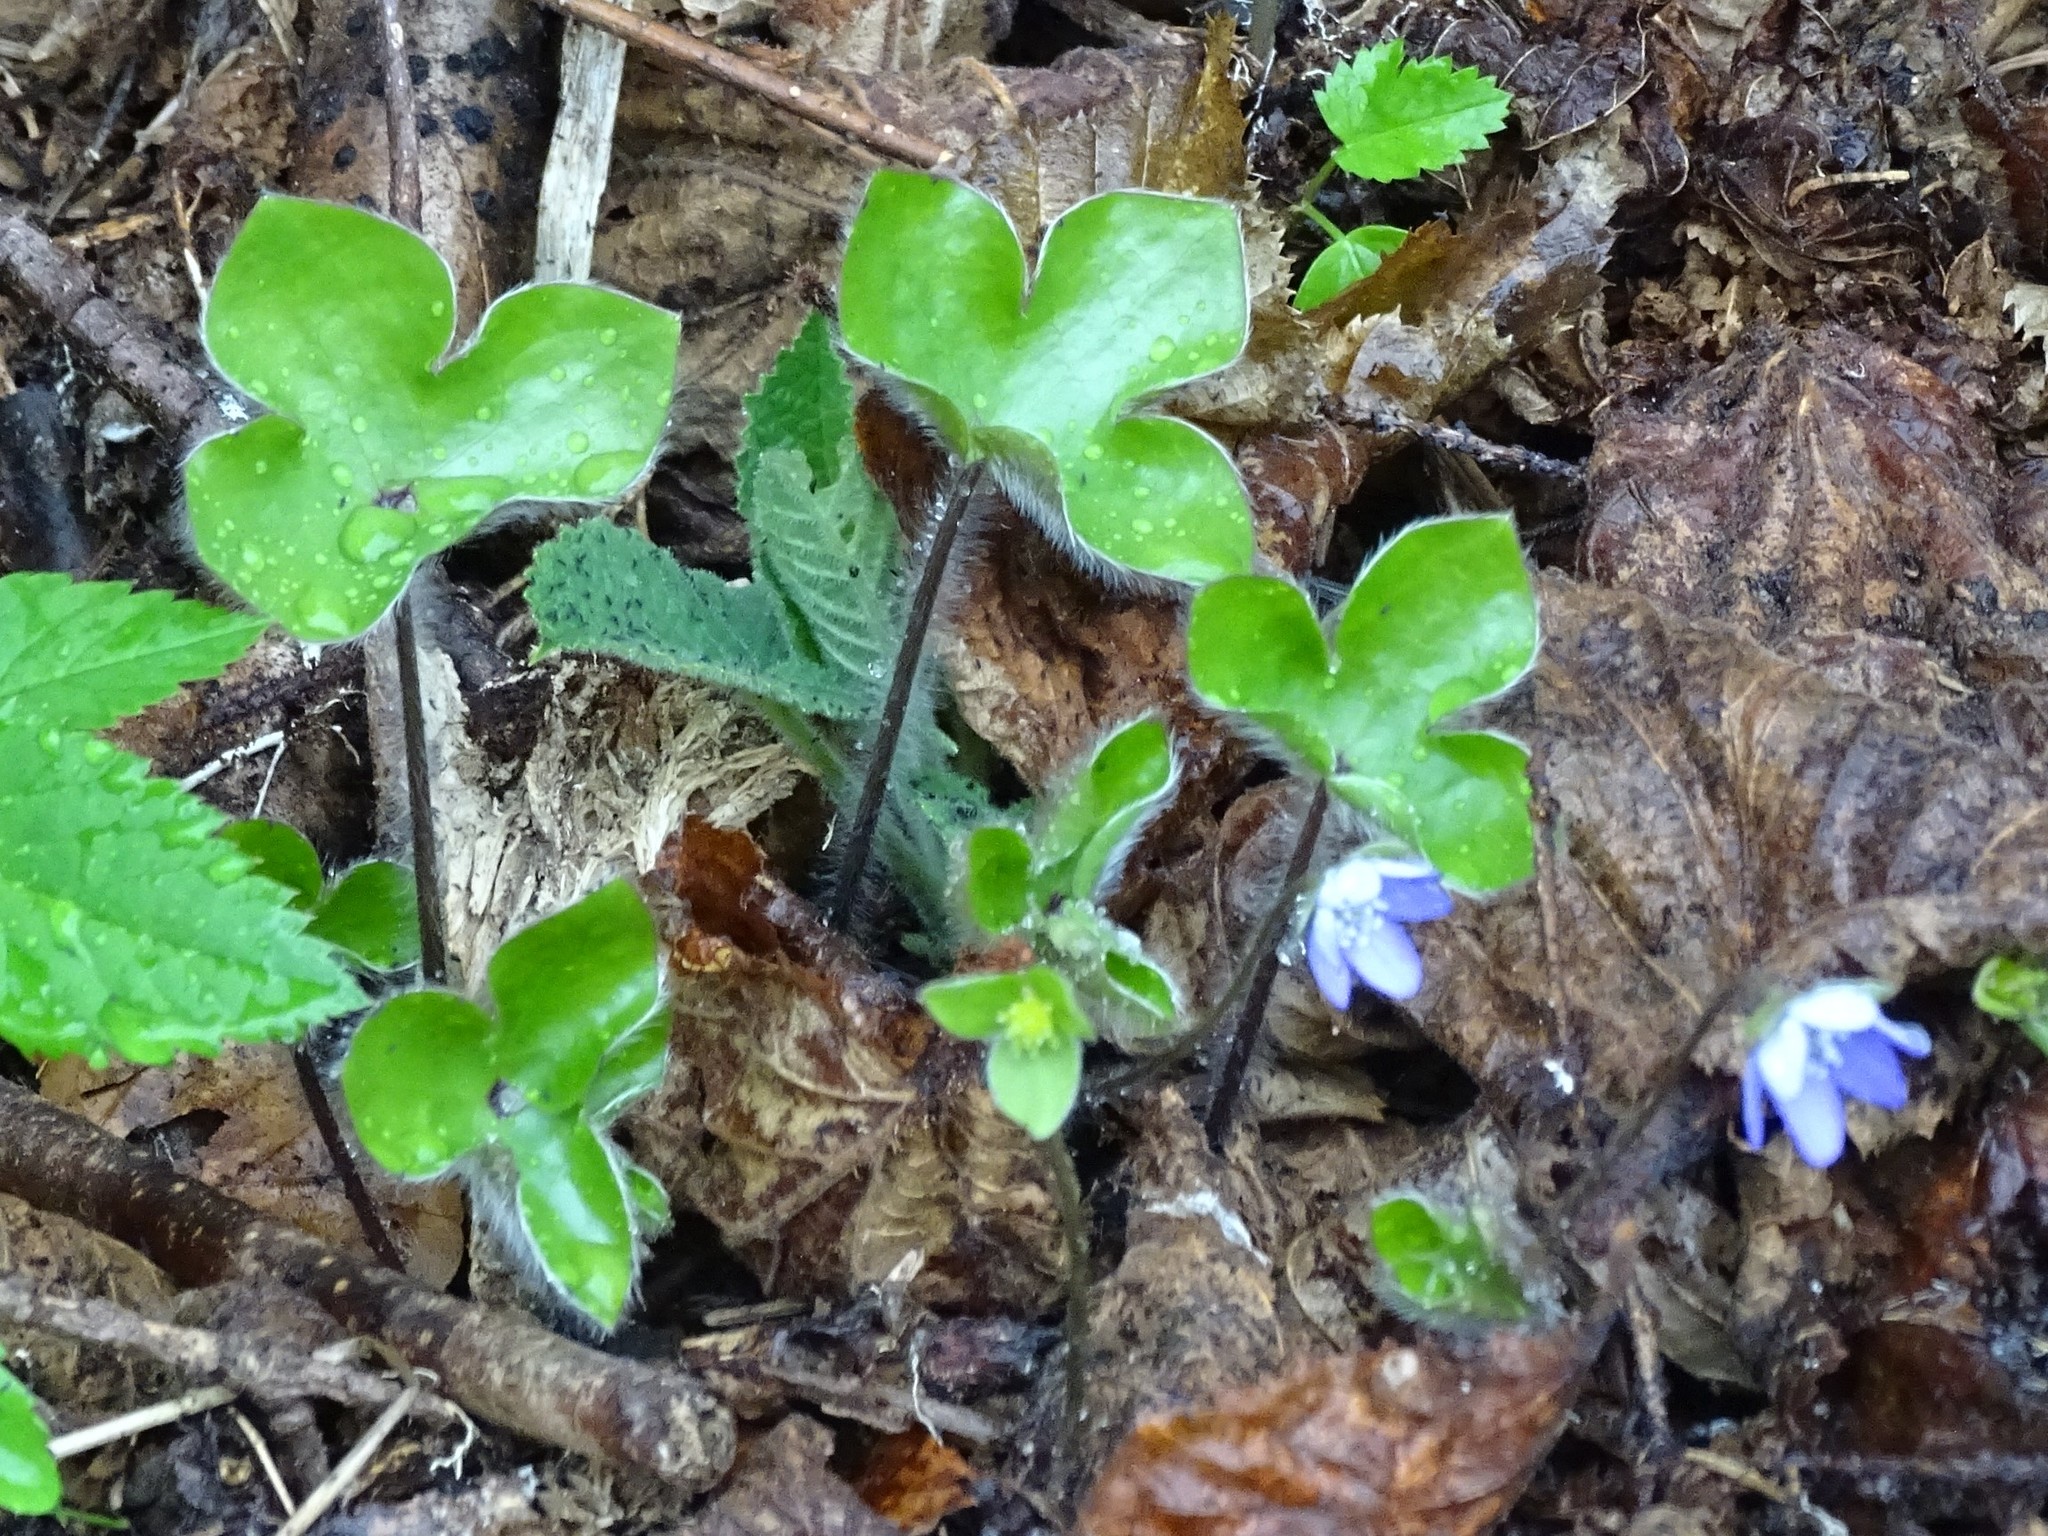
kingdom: Plantae
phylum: Tracheophyta
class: Magnoliopsida
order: Ranunculales
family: Ranunculaceae
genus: Hepatica
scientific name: Hepatica nobilis
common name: Liverleaf
